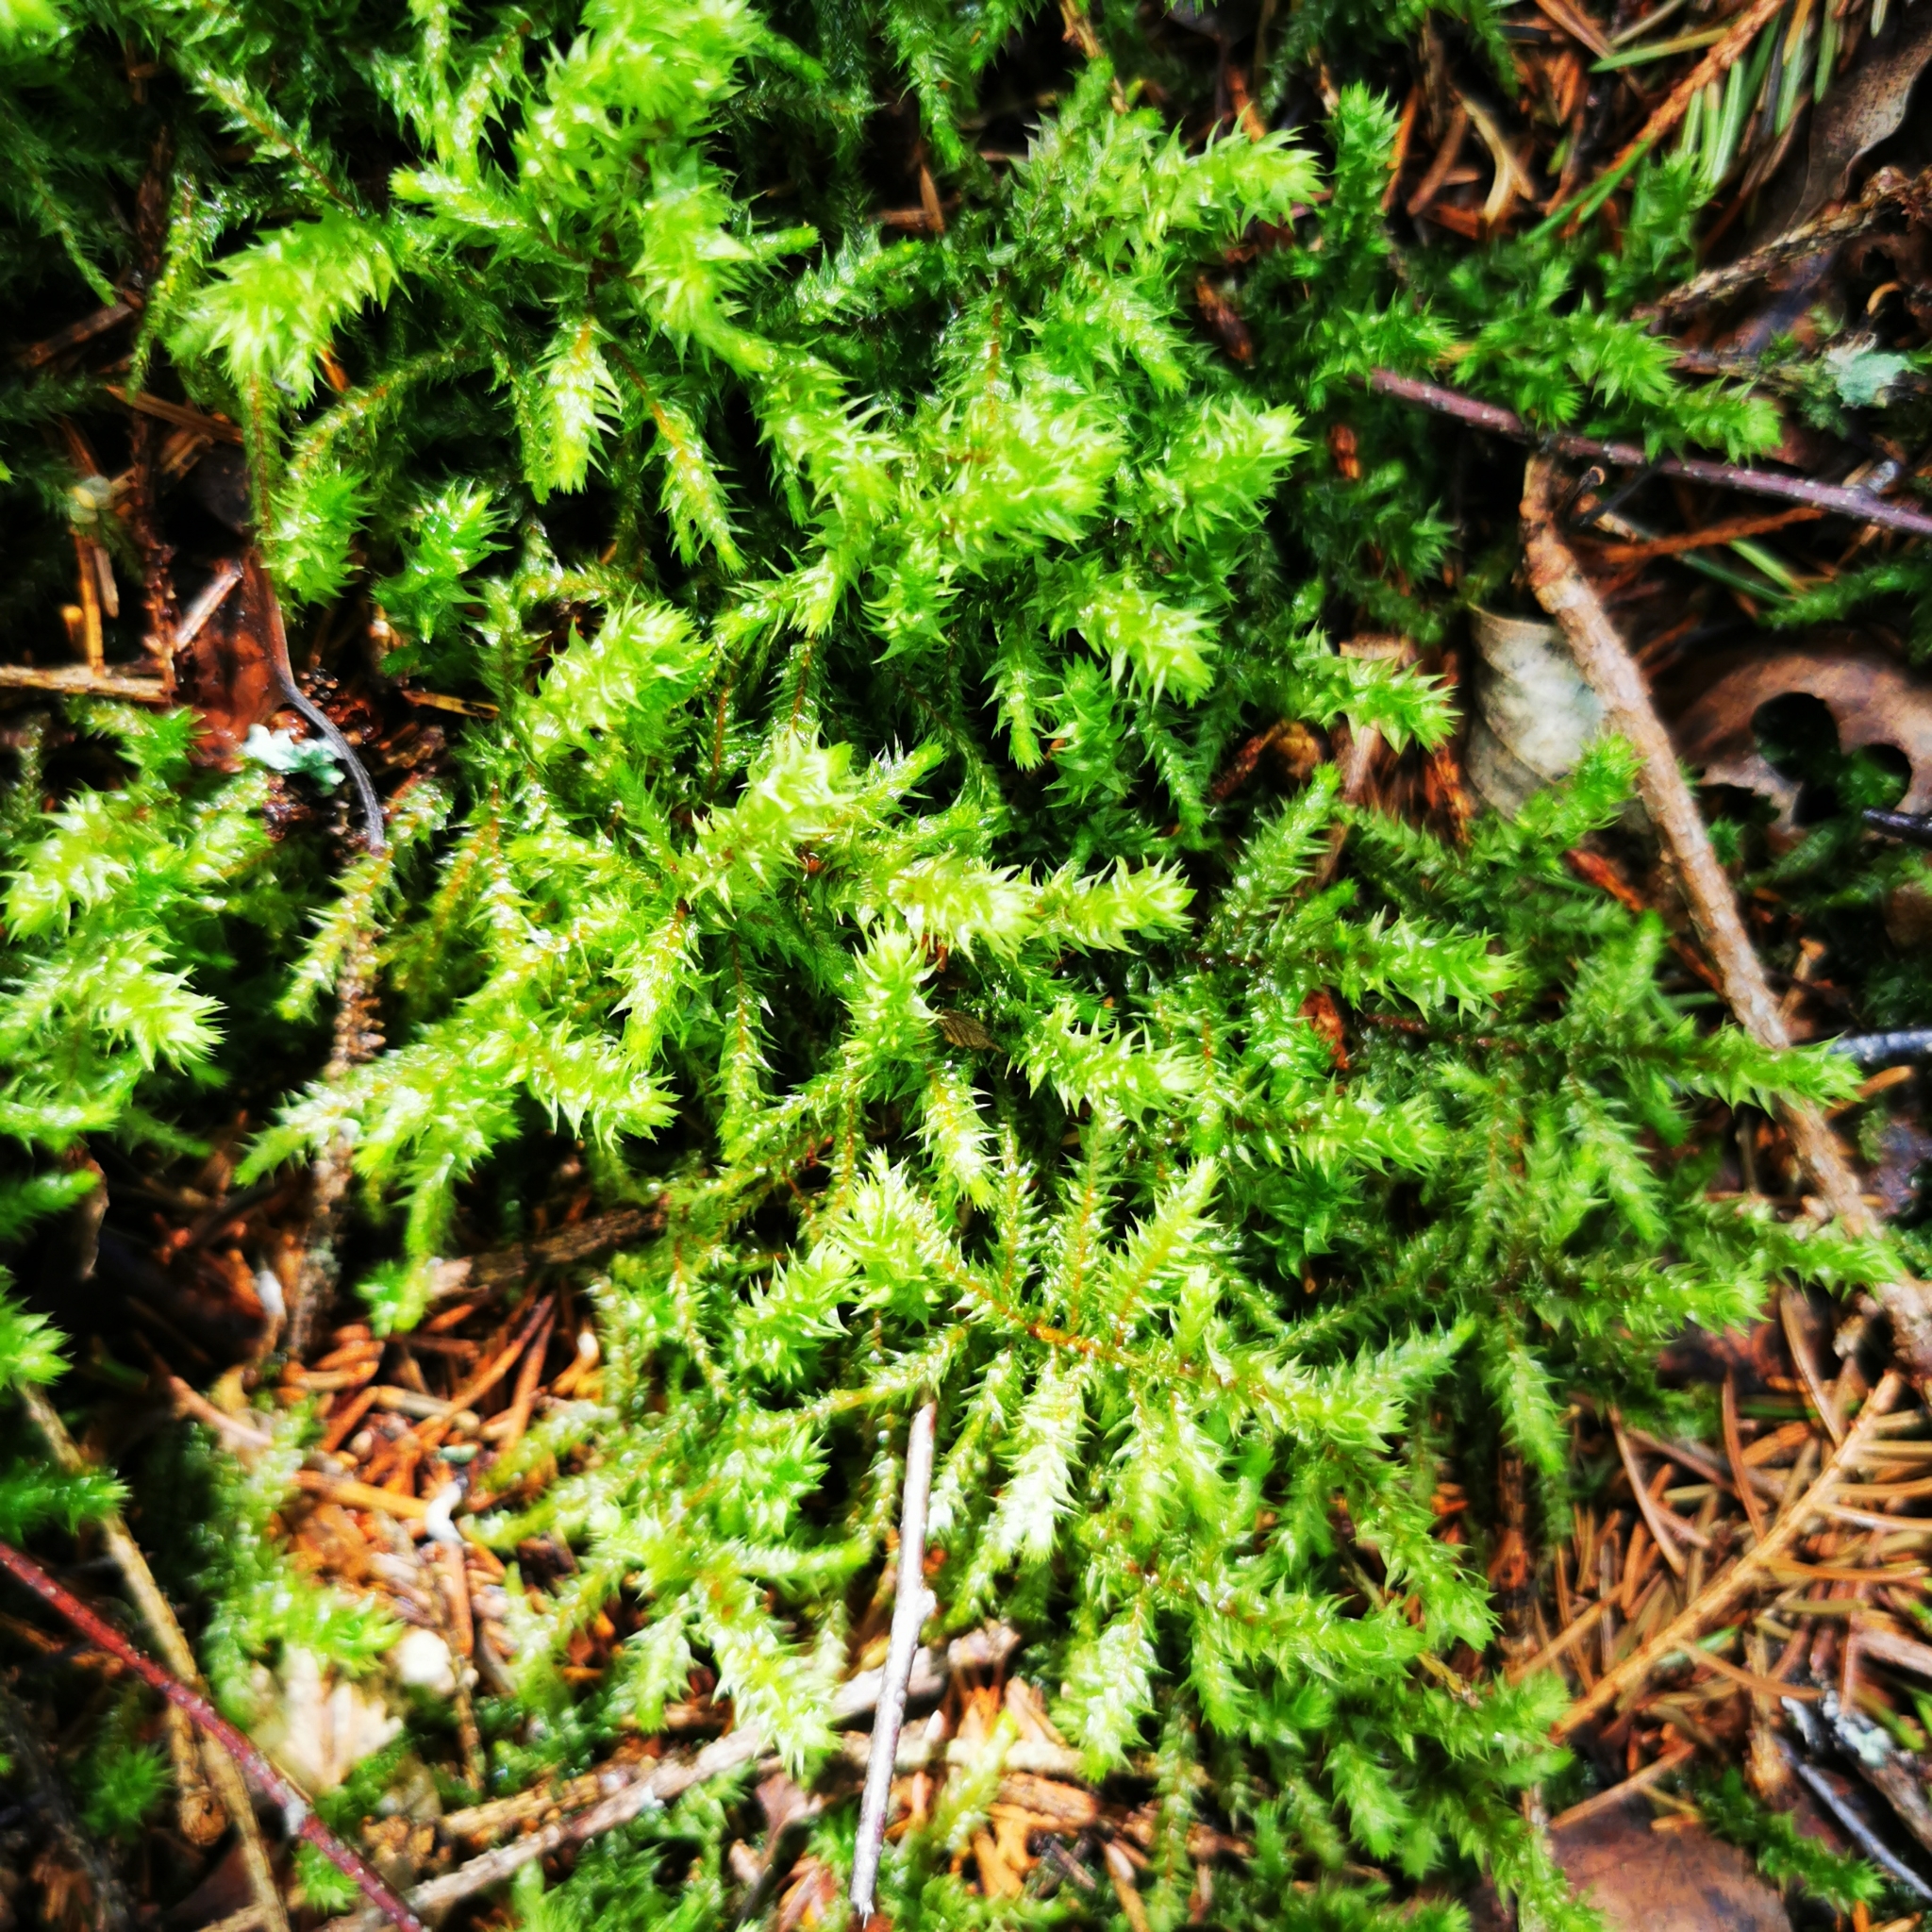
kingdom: Plantae
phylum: Bryophyta
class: Bryopsida
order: Hypnales
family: Hylocomiaceae
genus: Hylocomiadelphus
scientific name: Hylocomiadelphus triquetrus
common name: Rough goose neck moss
